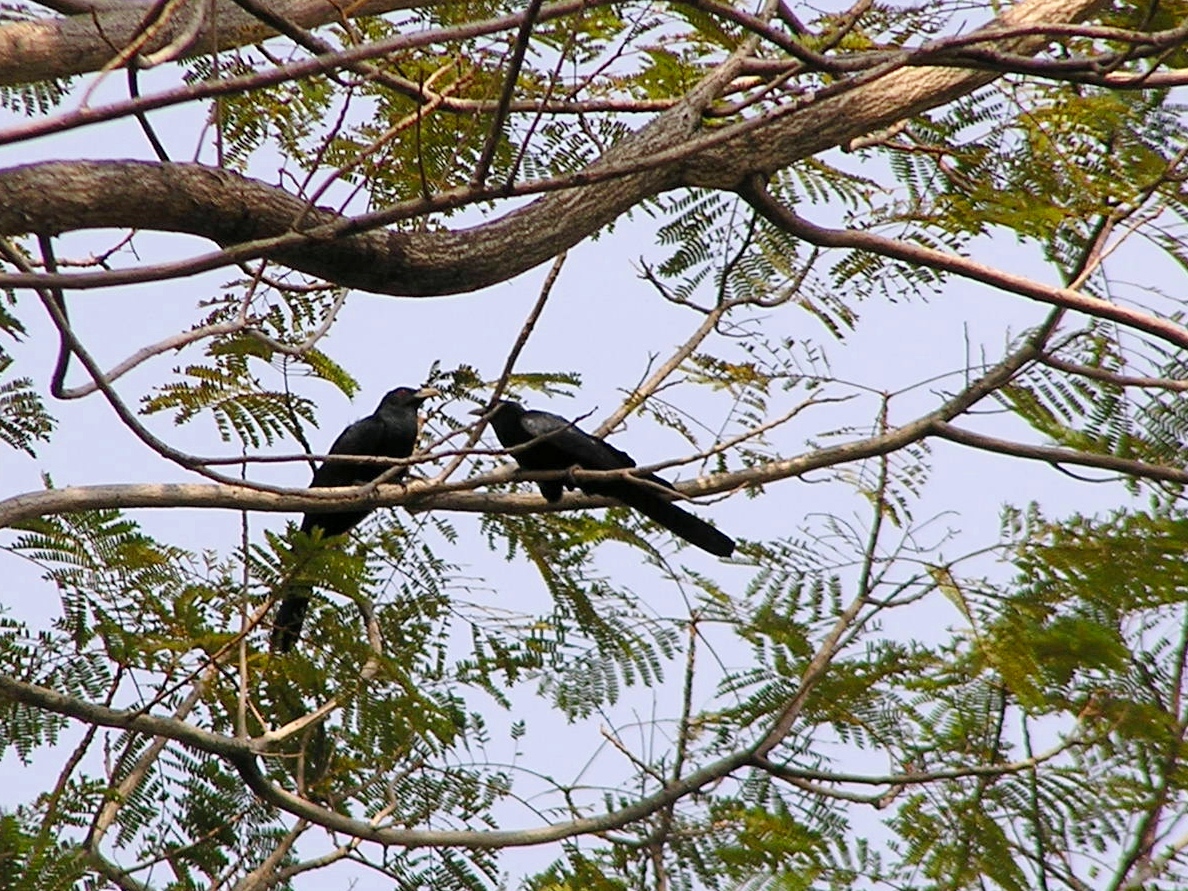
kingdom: Animalia
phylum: Chordata
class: Aves
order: Cuculiformes
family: Cuculidae
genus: Eudynamys
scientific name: Eudynamys scolopaceus
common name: Asian koel
